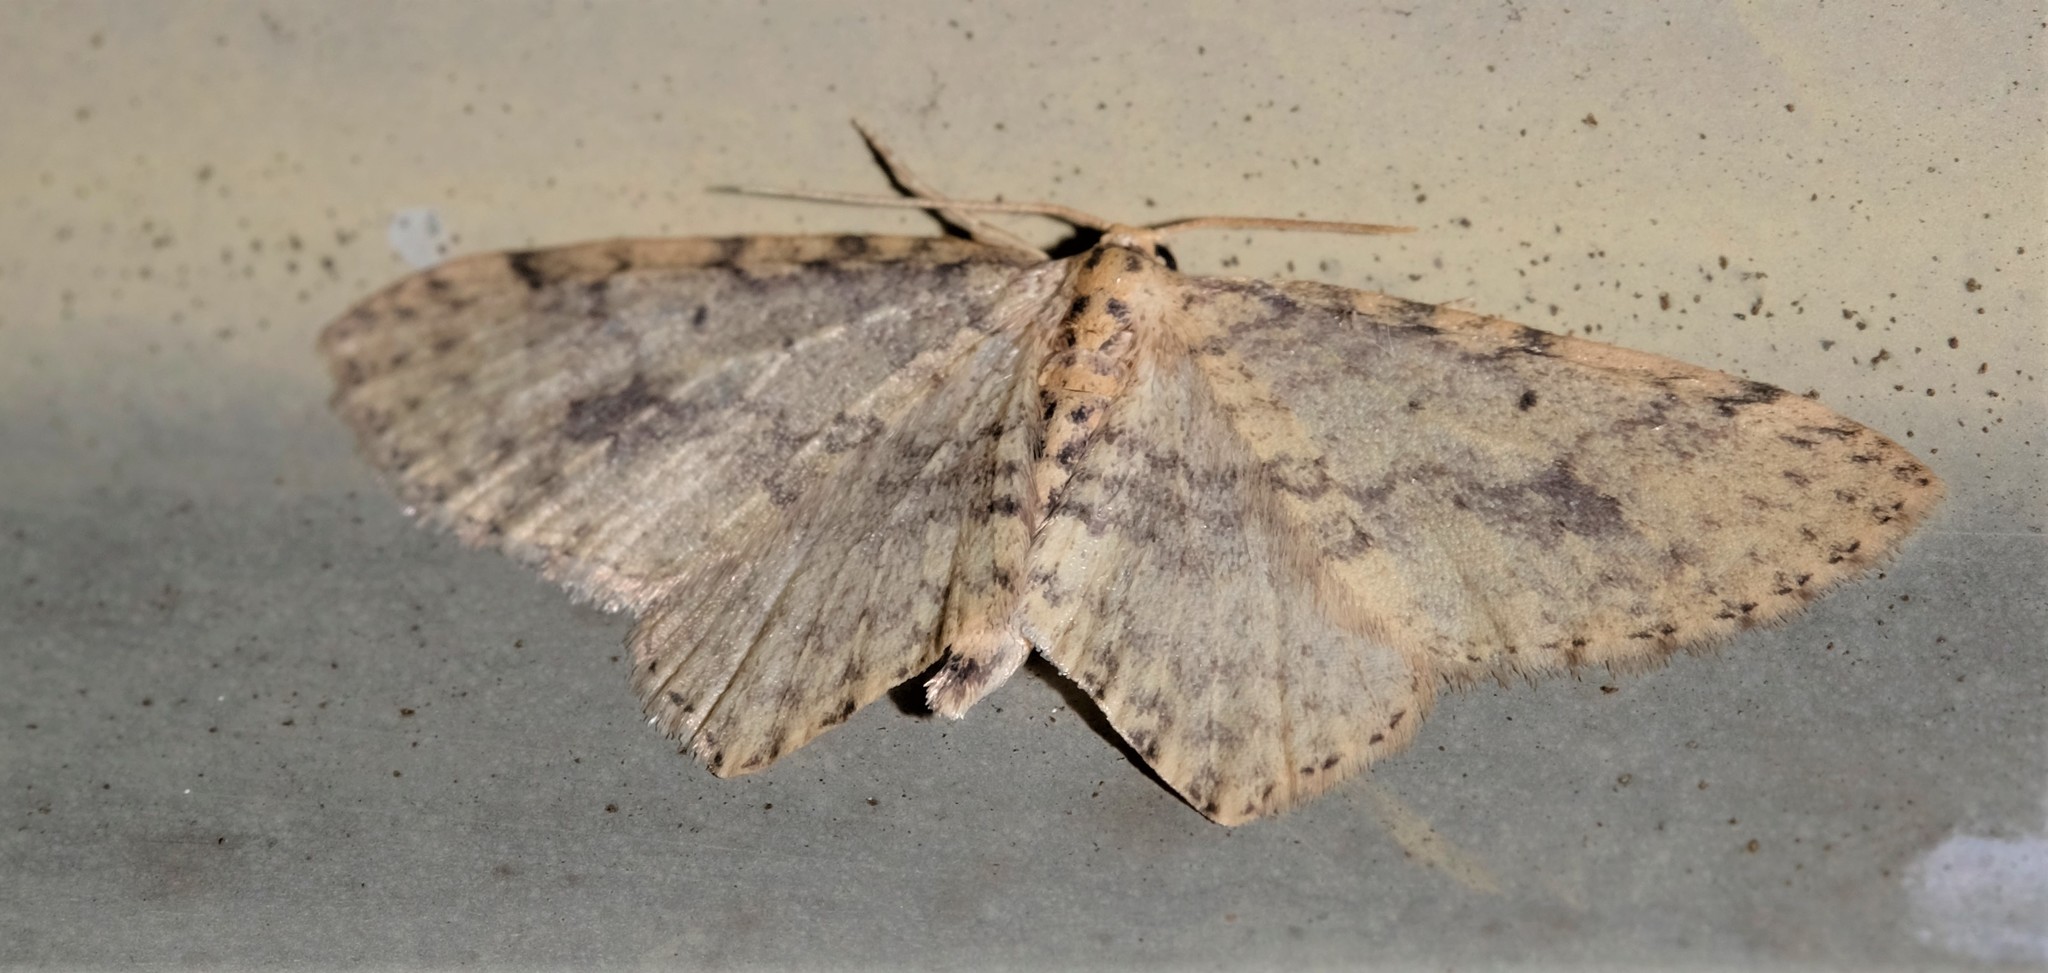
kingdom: Animalia
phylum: Arthropoda
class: Insecta
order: Lepidoptera
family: Geometridae
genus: Poecilasthena
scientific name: Poecilasthena scoliota
